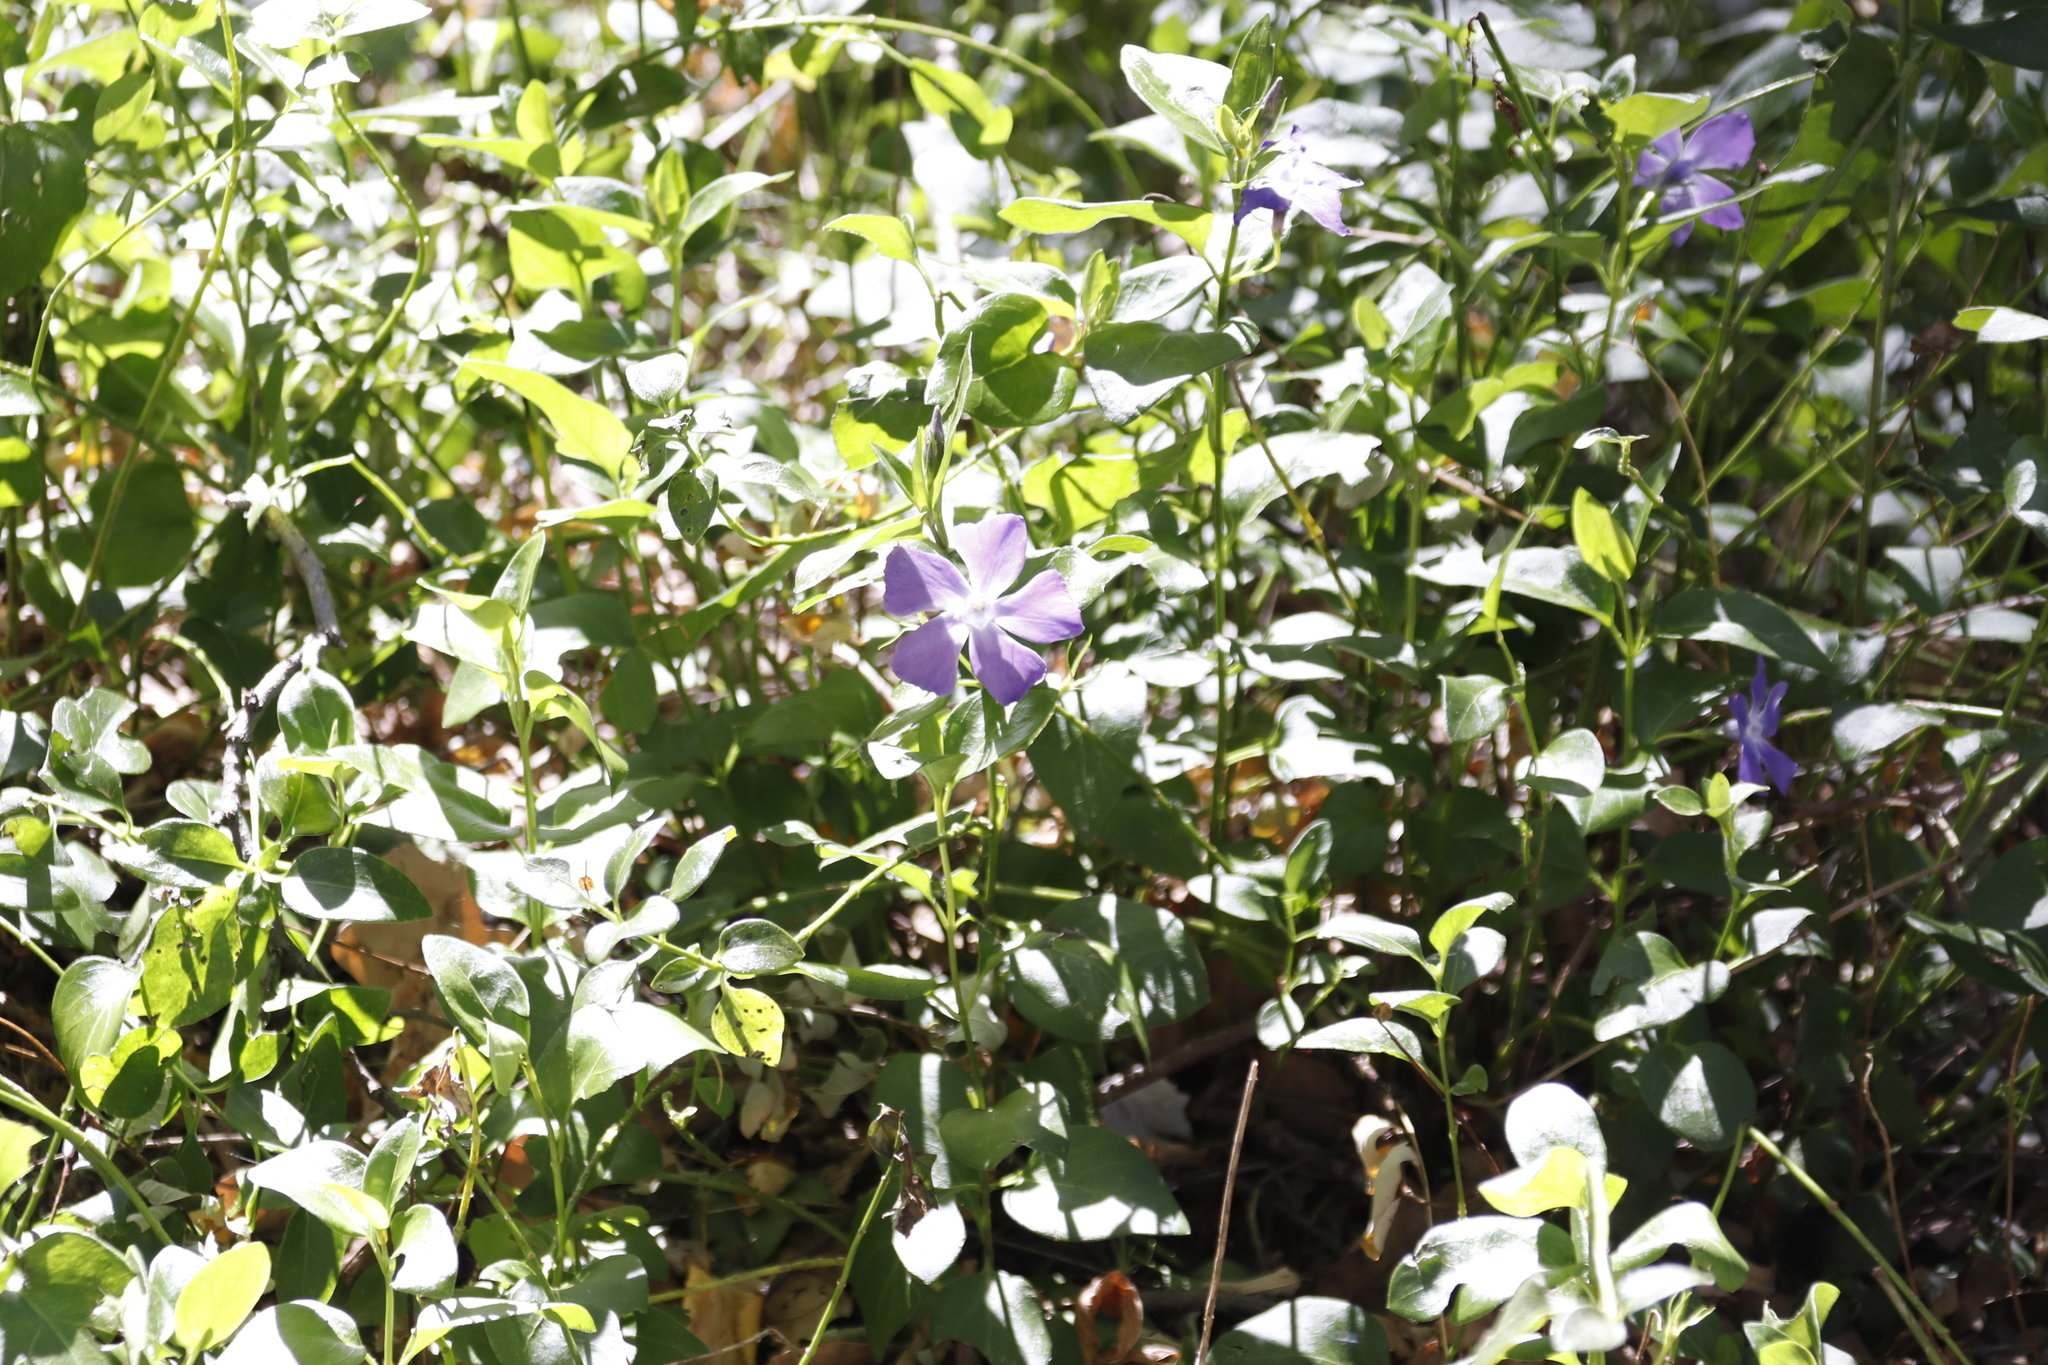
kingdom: Plantae
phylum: Tracheophyta
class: Magnoliopsida
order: Gentianales
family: Apocynaceae
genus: Vinca
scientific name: Vinca major
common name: Greater periwinkle
